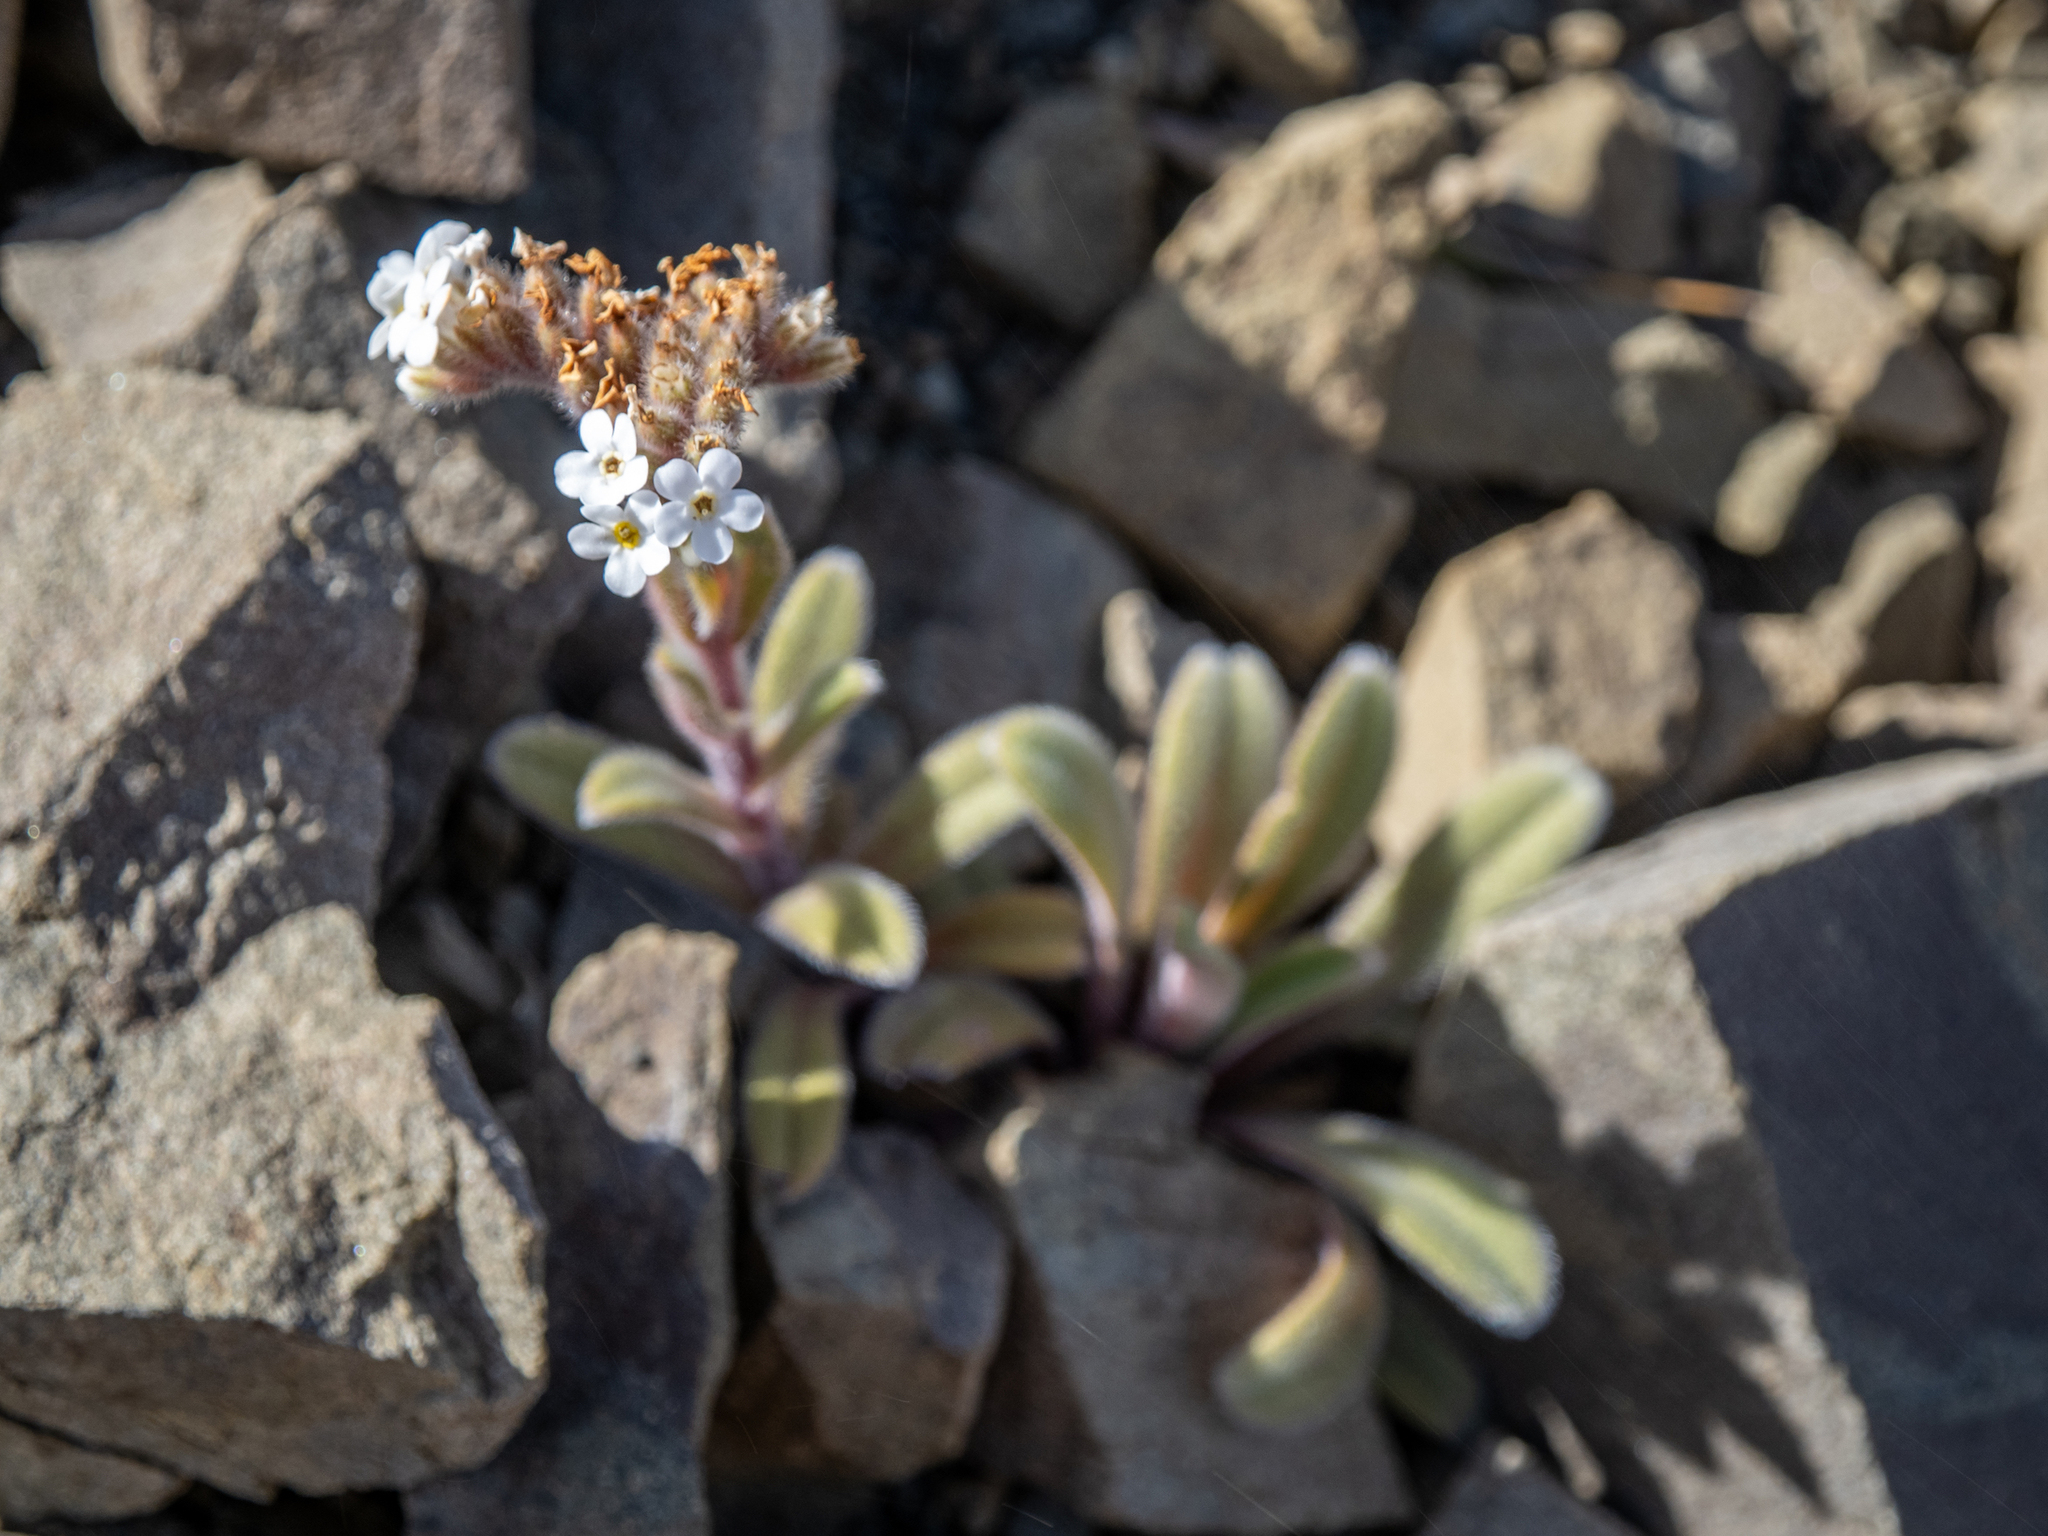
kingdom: Plantae
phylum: Tracheophyta
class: Magnoliopsida
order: Boraginales
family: Boraginaceae
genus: Myosotis
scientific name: Myosotis traversii
